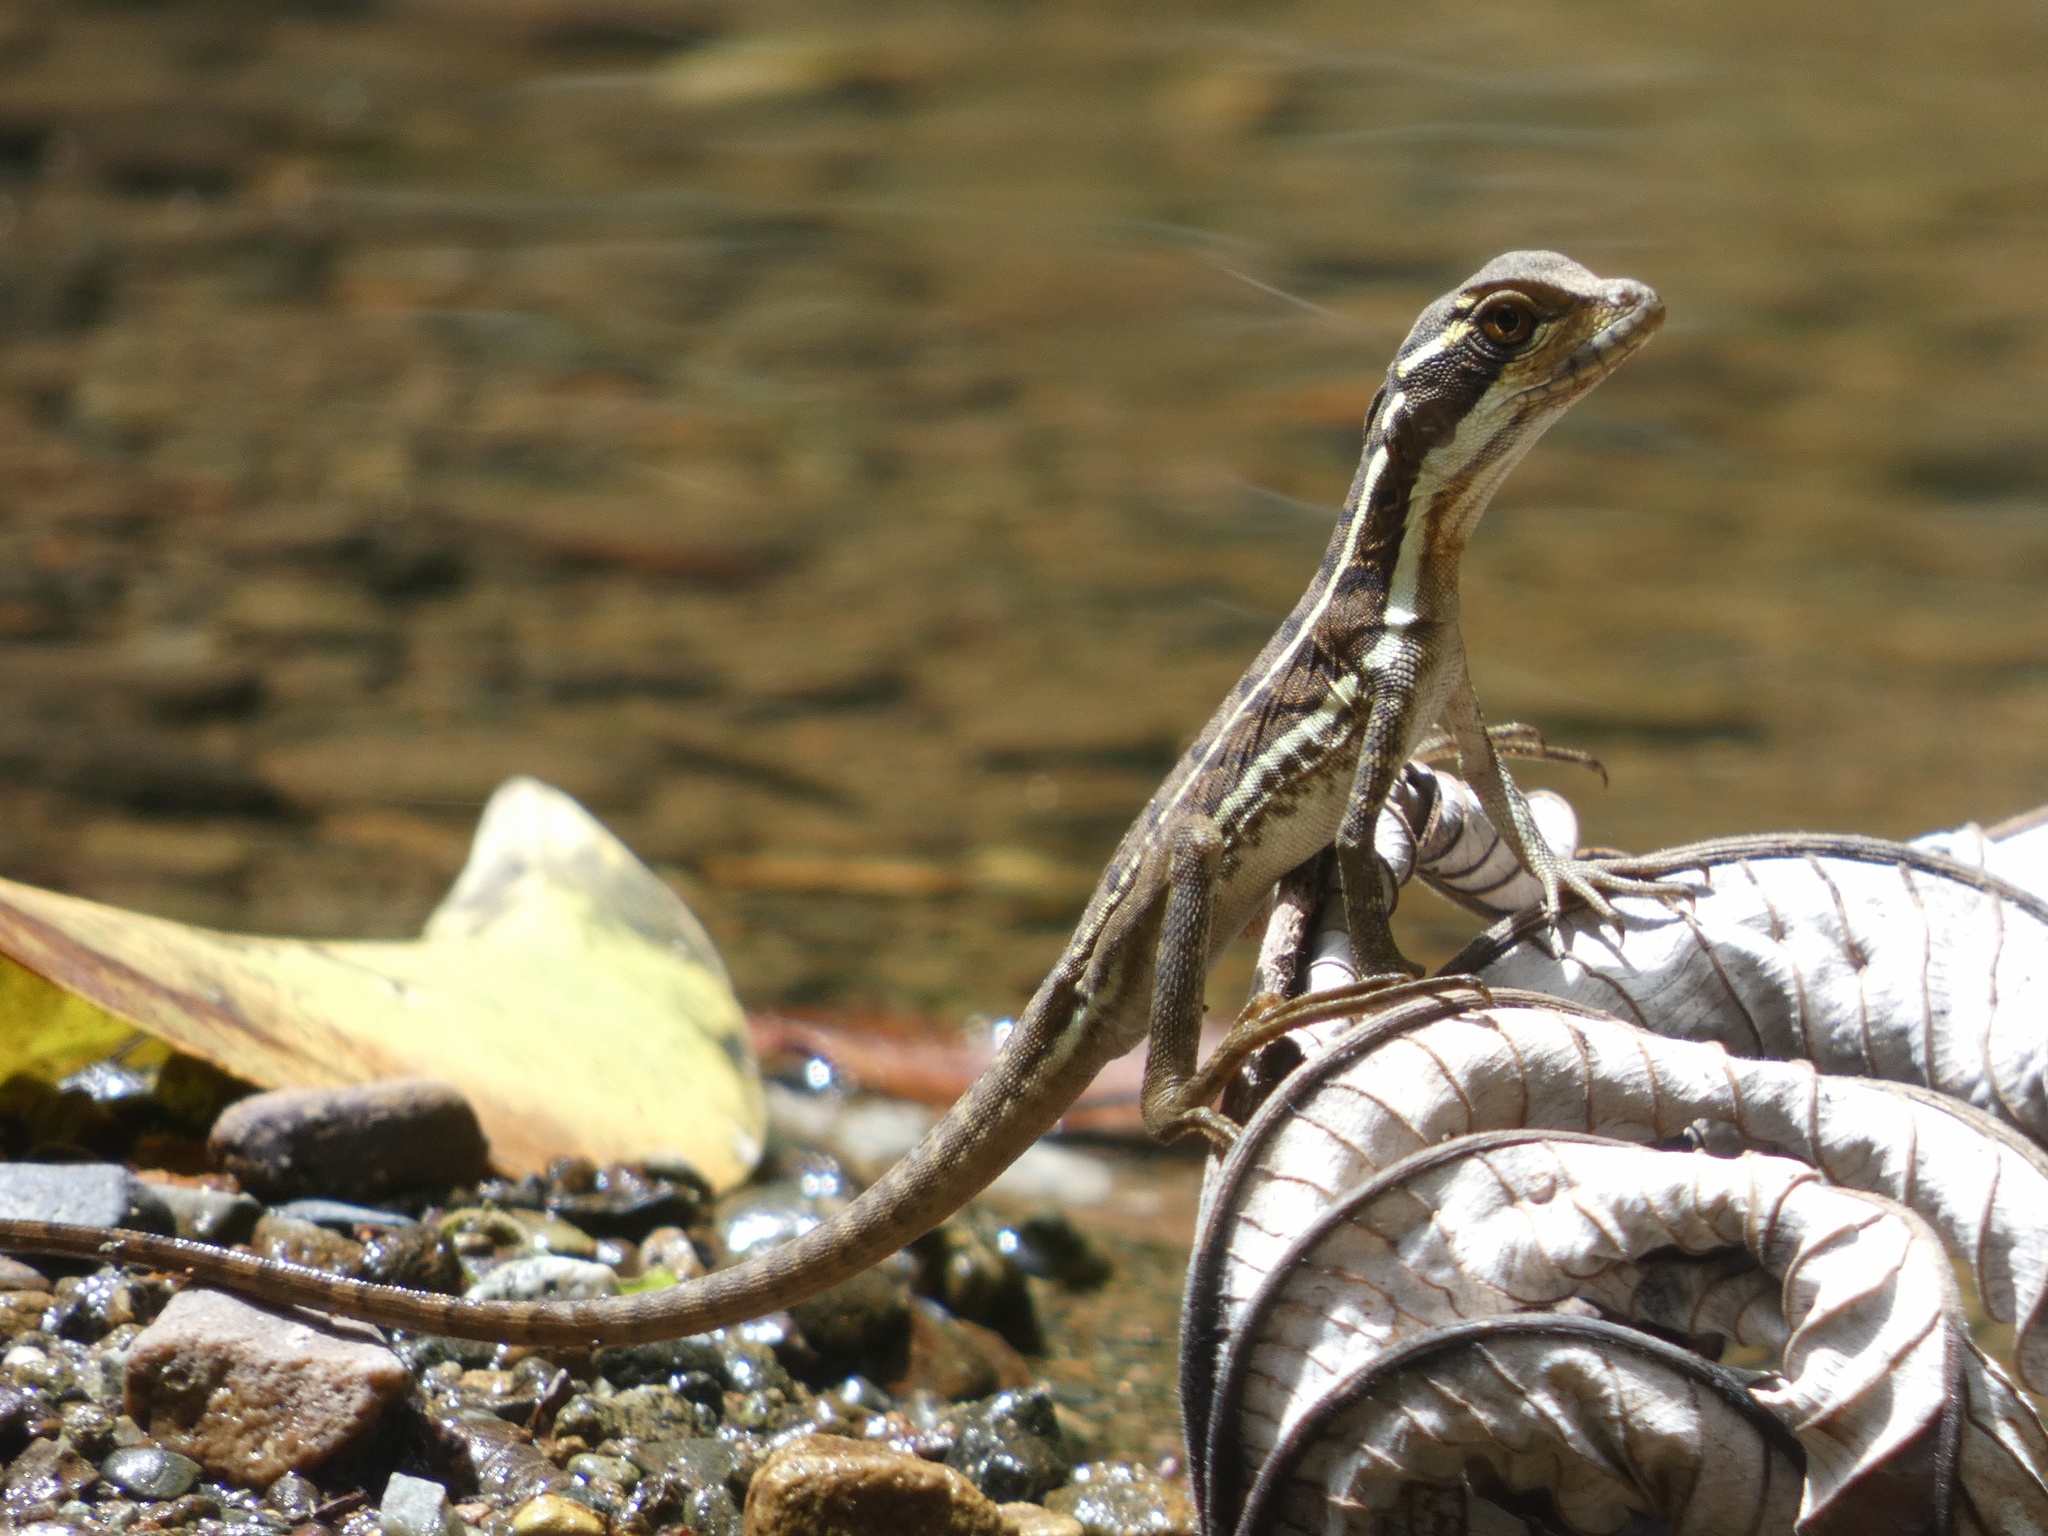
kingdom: Animalia
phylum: Chordata
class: Squamata
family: Corytophanidae
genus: Basiliscus
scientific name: Basiliscus basiliscus
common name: Common basilisk
